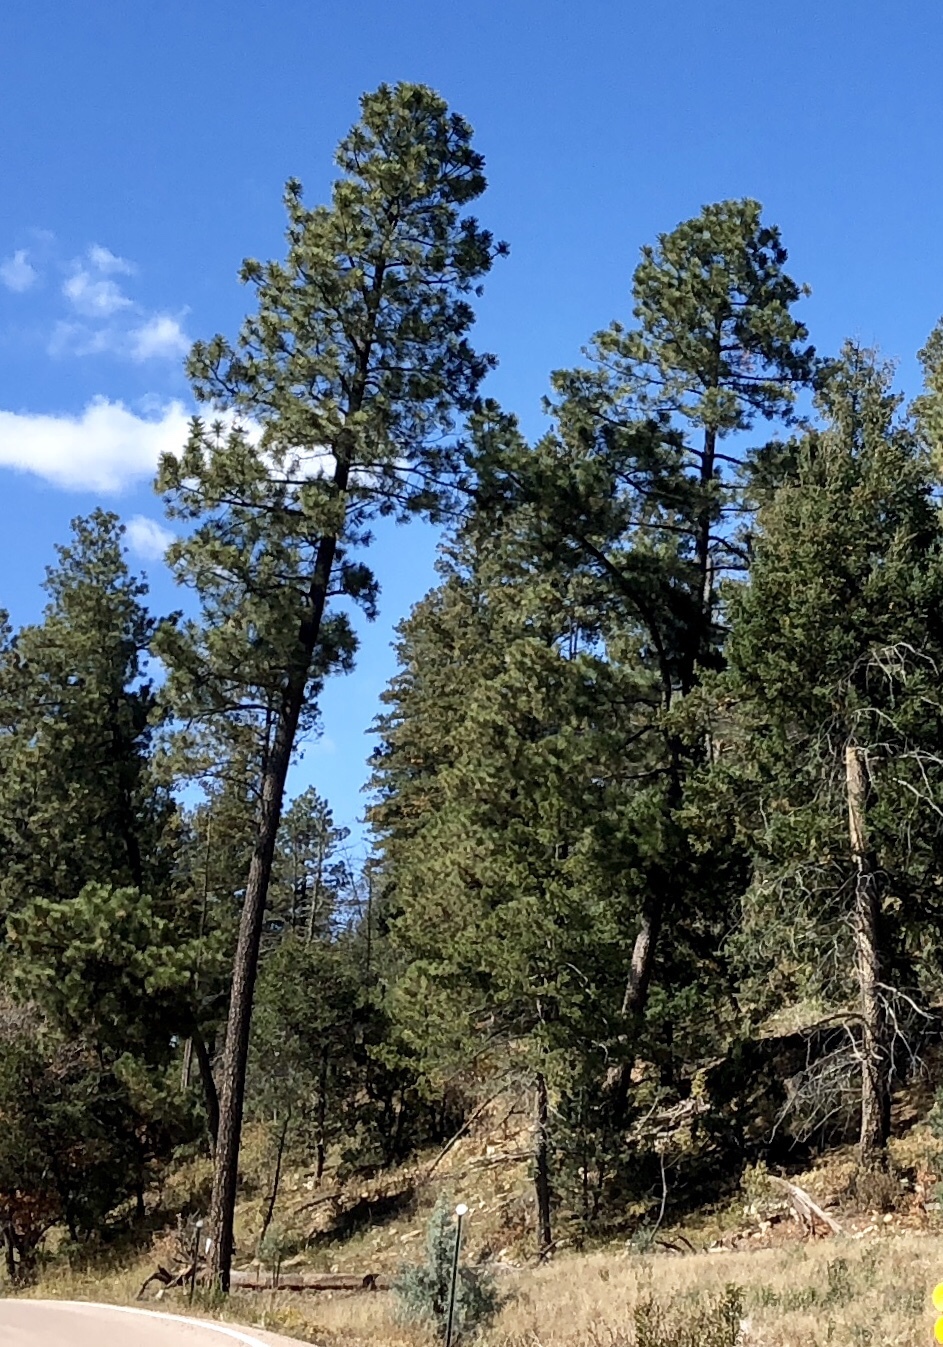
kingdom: Plantae
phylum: Tracheophyta
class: Pinopsida
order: Pinales
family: Pinaceae
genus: Pinus
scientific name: Pinus ponderosa
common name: Western yellow-pine
